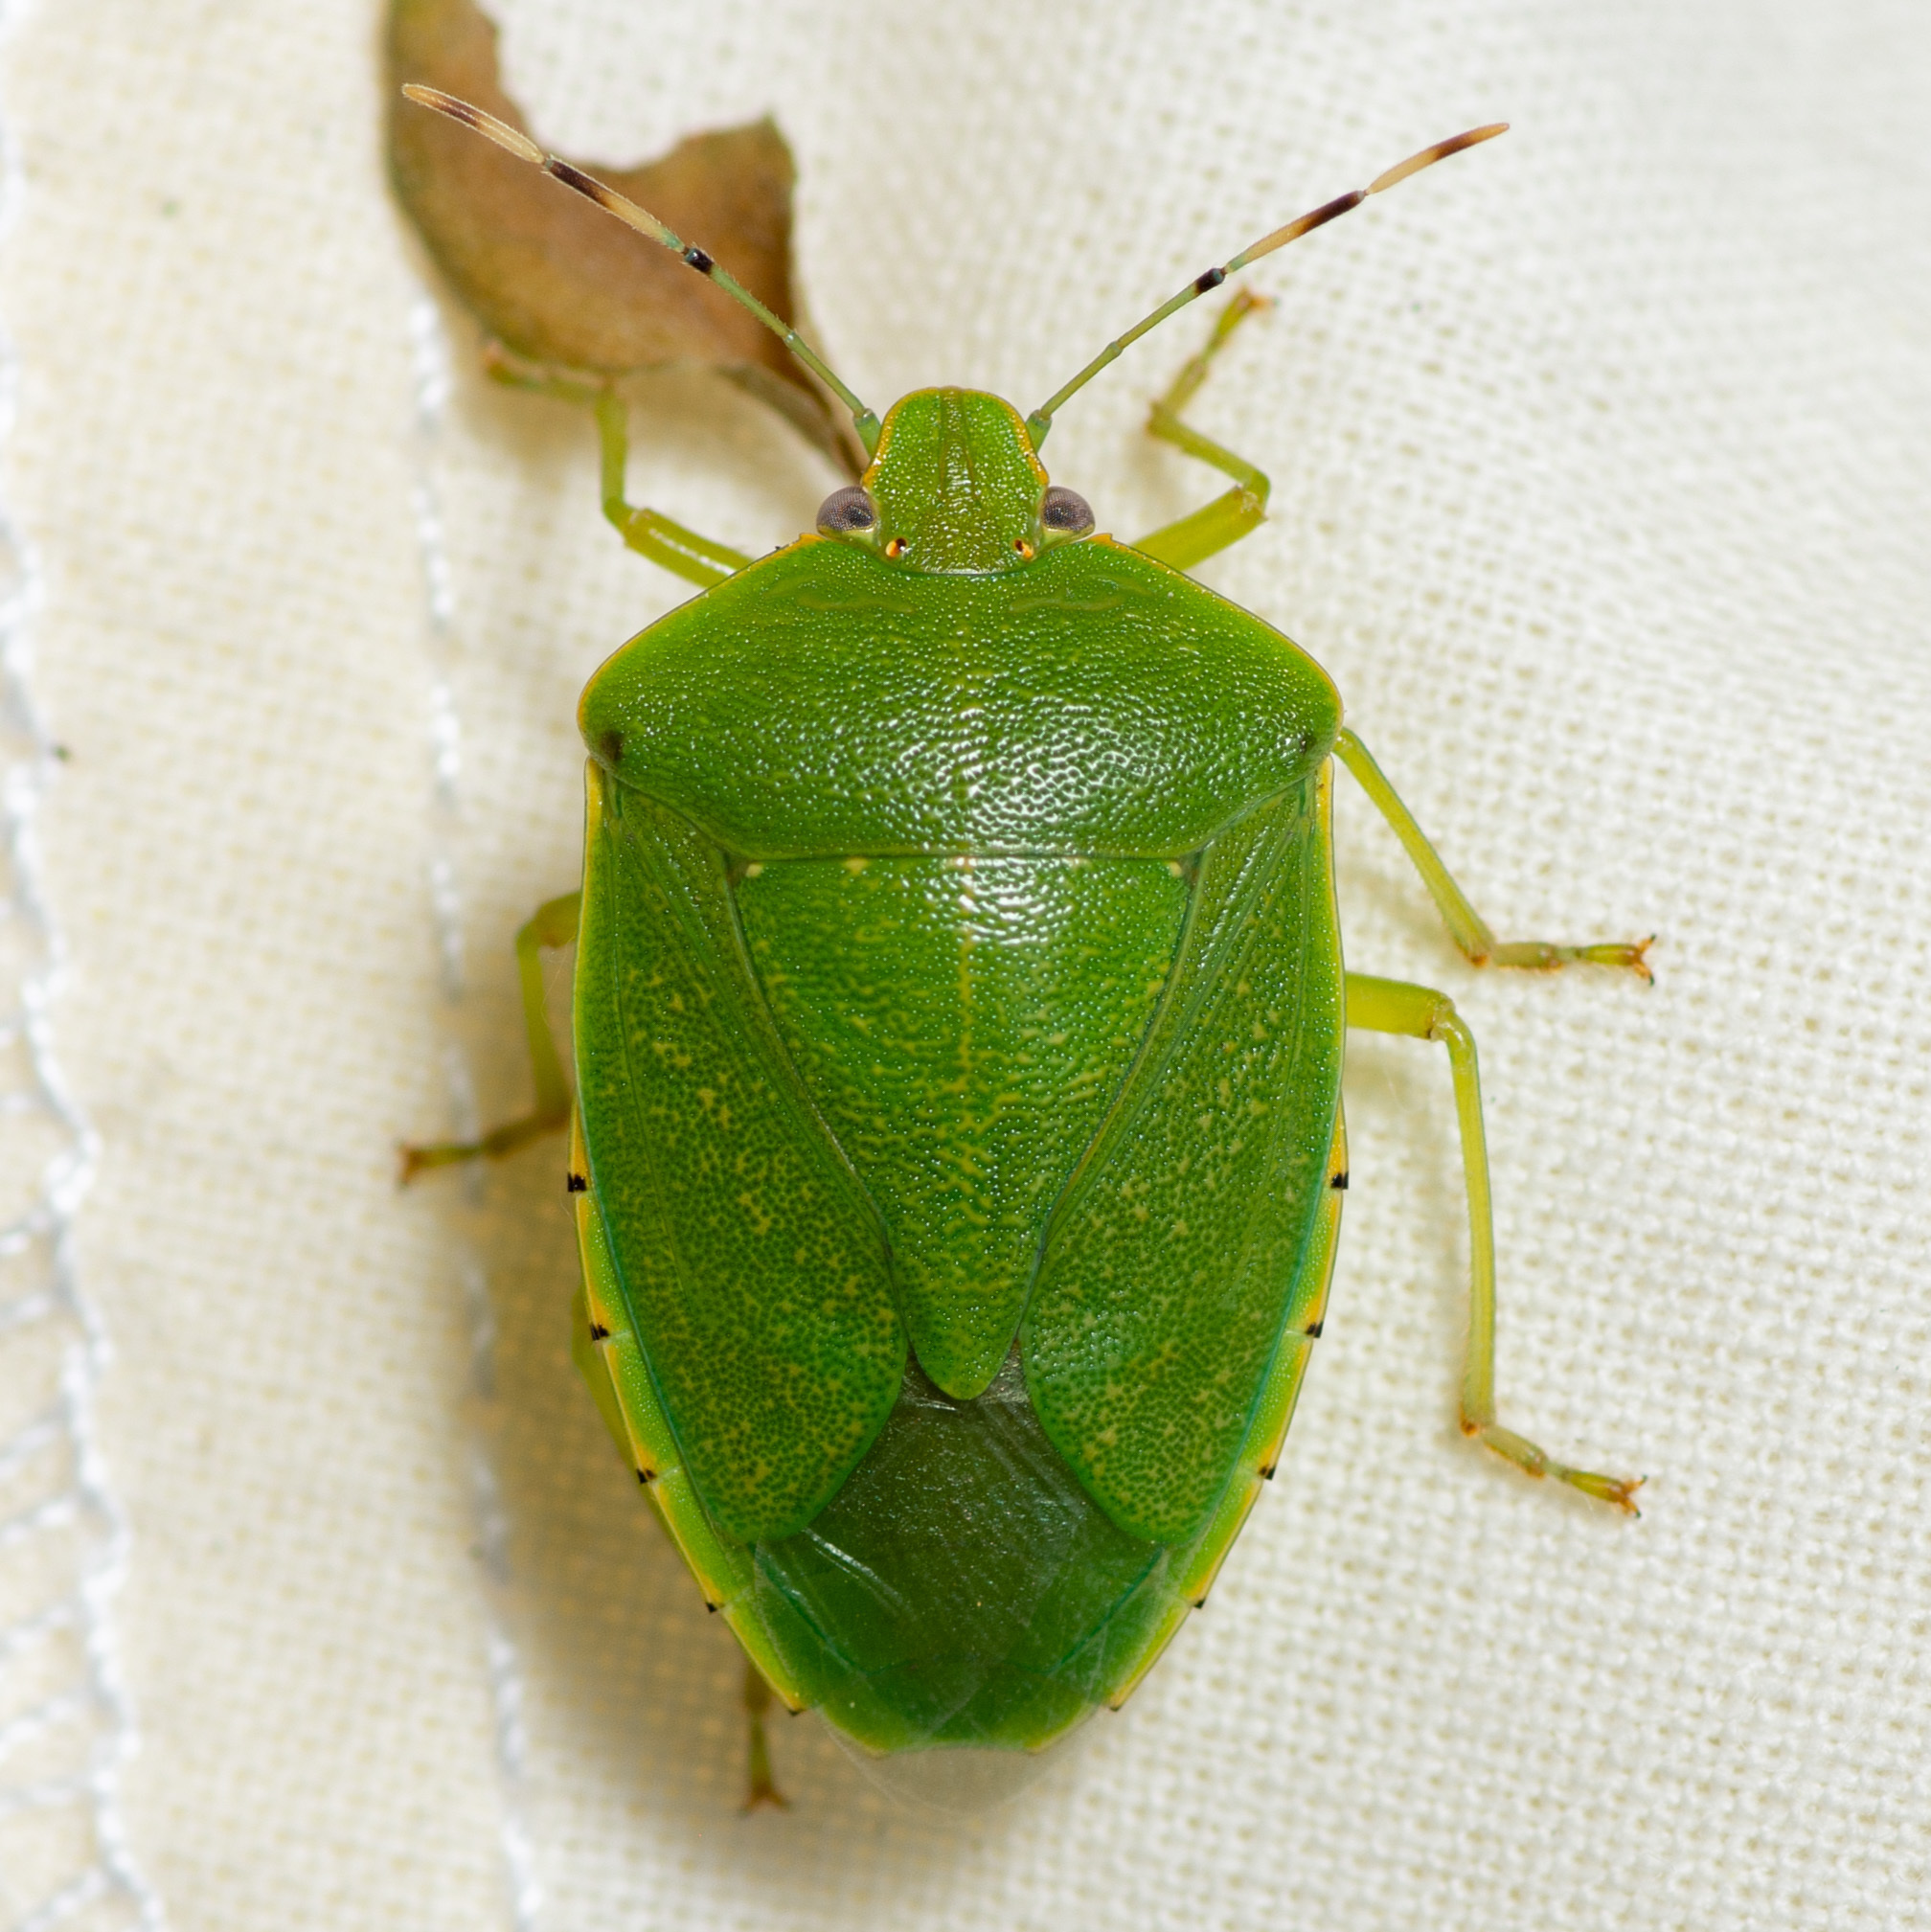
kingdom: Animalia
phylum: Arthropoda
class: Insecta
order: Hemiptera
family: Pentatomidae
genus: Chinavia
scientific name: Chinavia hilaris
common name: Green stink bug
